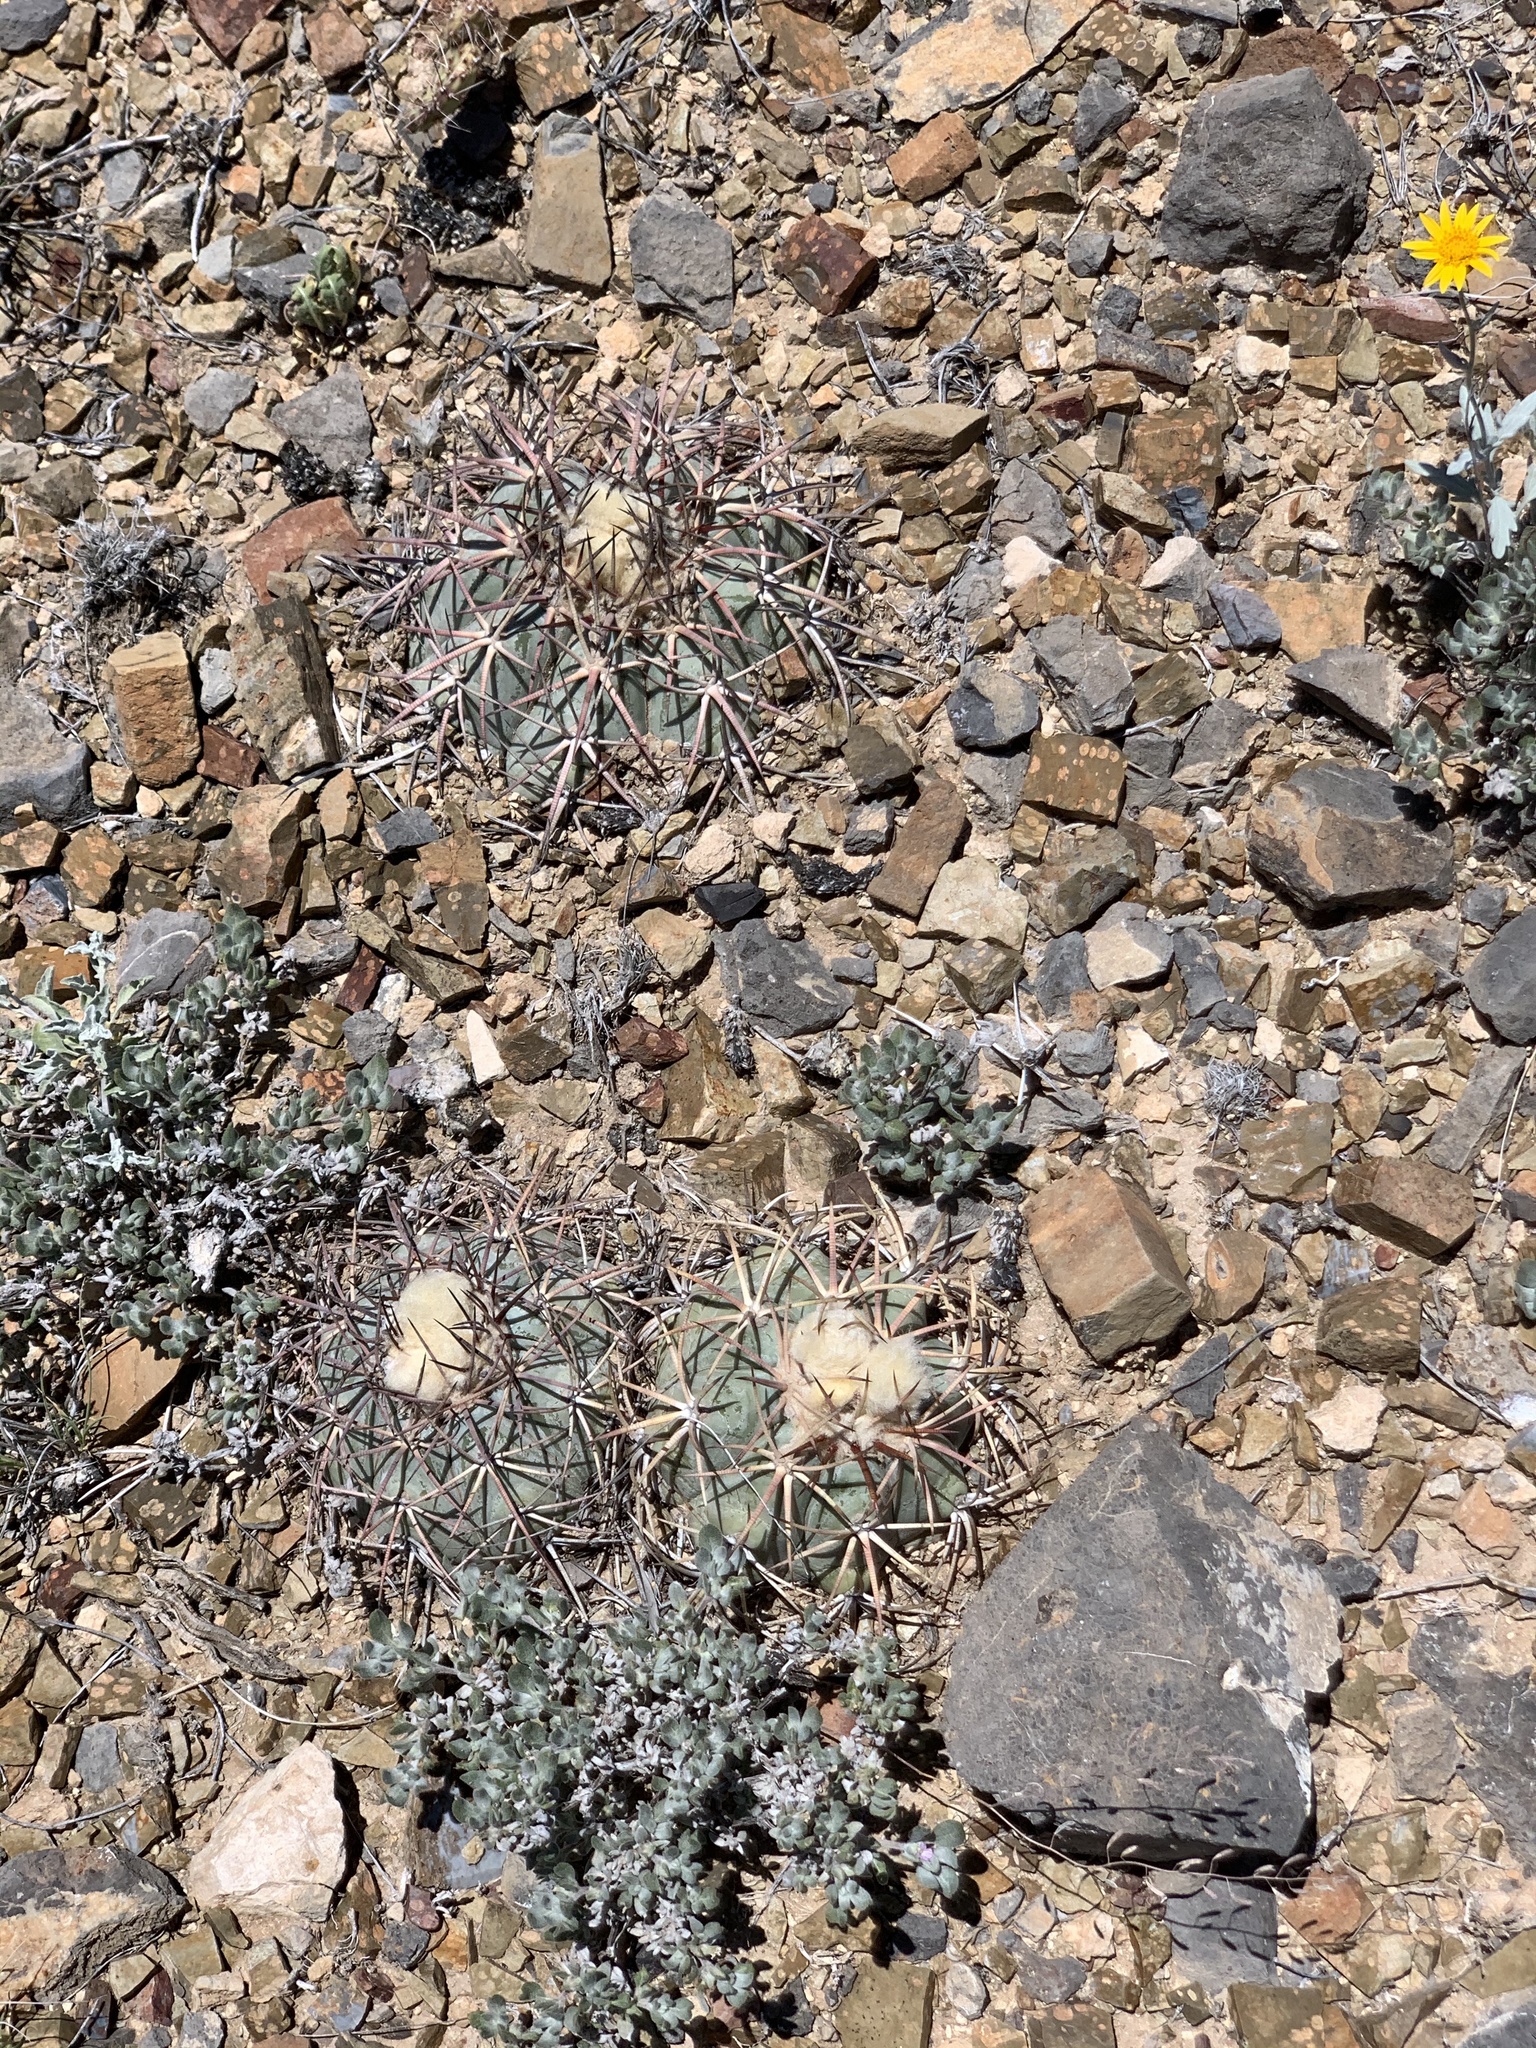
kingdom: Plantae
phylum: Tracheophyta
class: Magnoliopsida
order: Caryophyllales
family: Cactaceae
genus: Echinocactus
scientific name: Echinocactus horizonthalonius
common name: Devilshead
